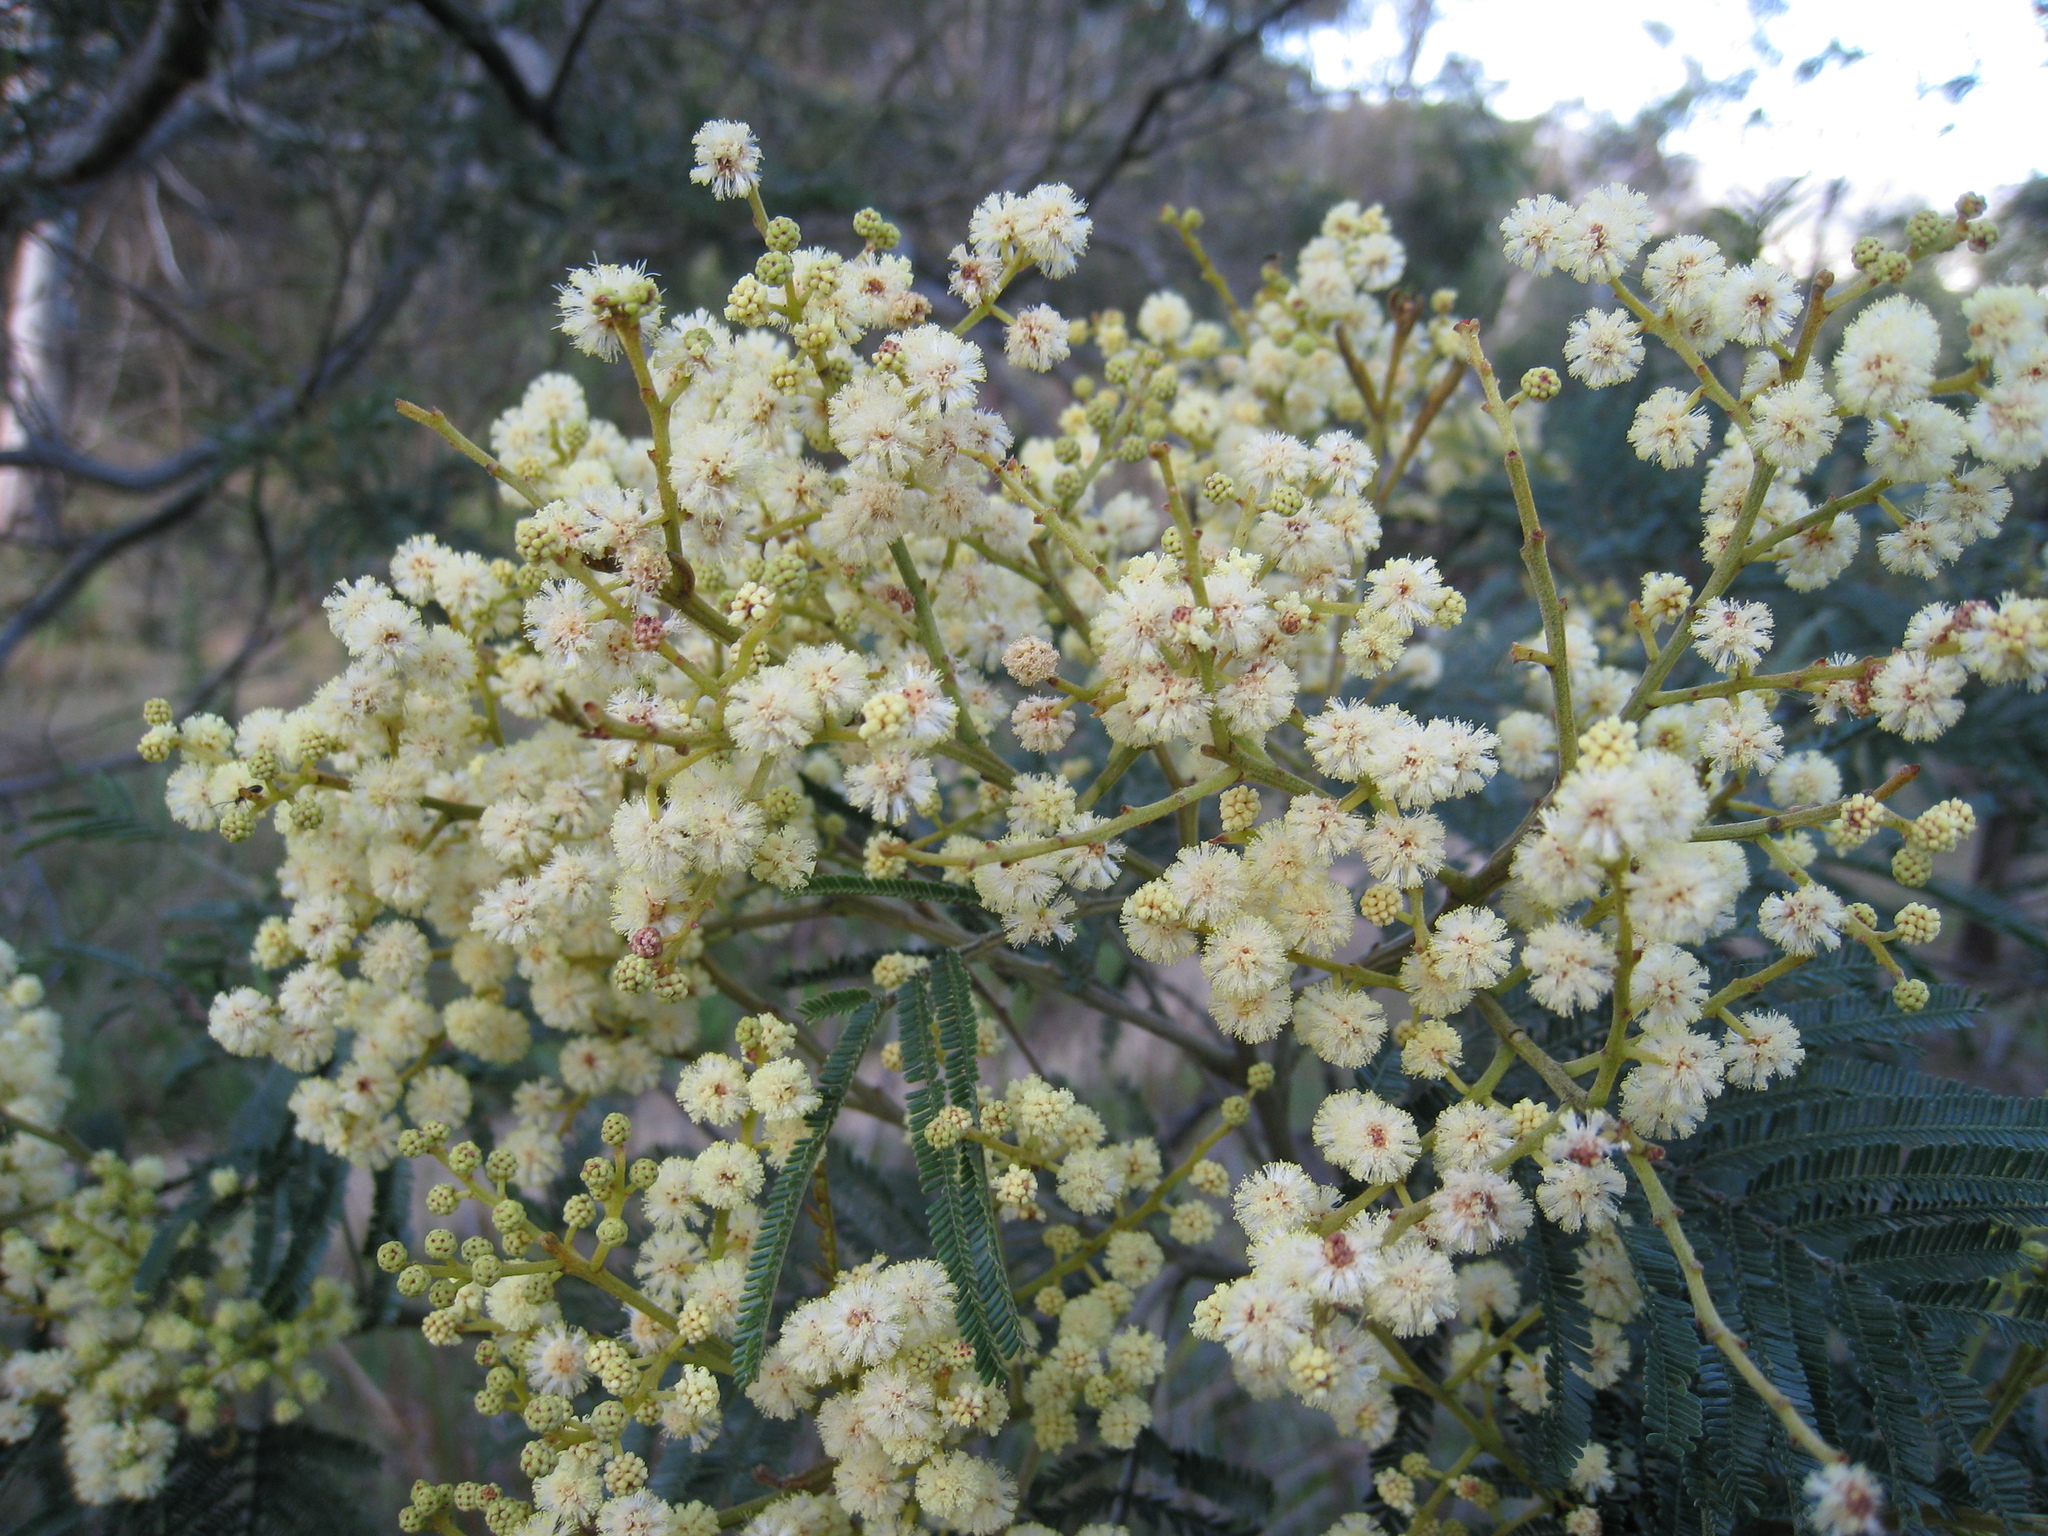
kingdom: Plantae
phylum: Tracheophyta
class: Magnoliopsida
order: Fabales
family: Fabaceae
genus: Acacia
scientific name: Acacia mearnsii
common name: Black wattle
